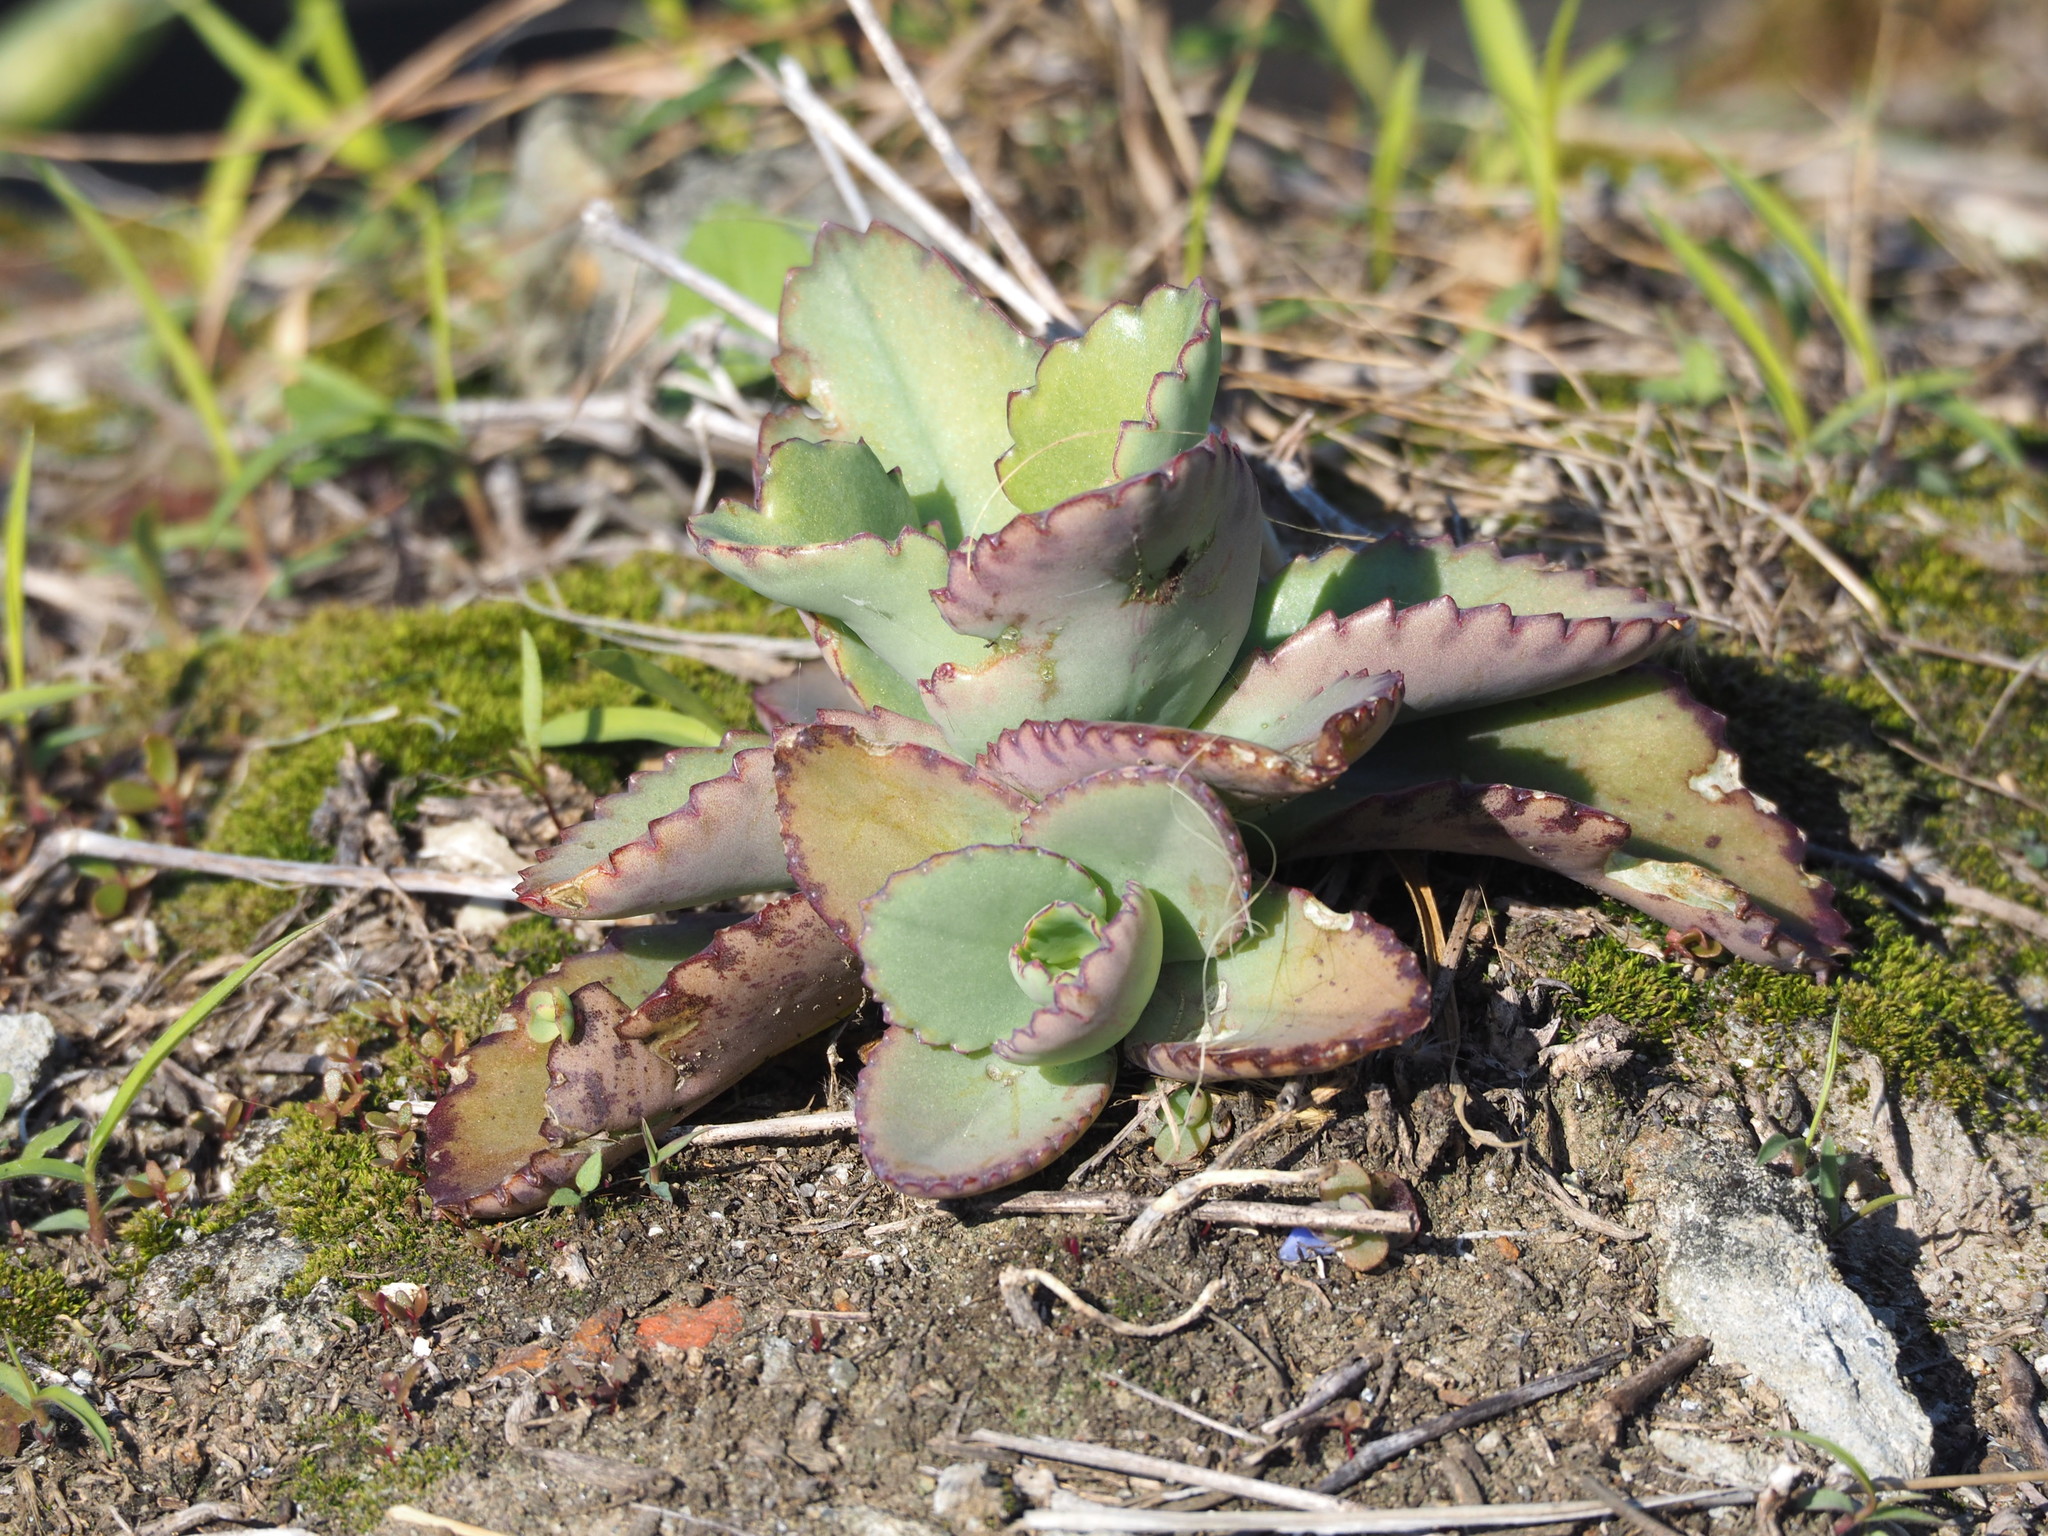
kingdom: Plantae
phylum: Tracheophyta
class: Magnoliopsida
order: Saxifragales
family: Crassulaceae
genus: Kalanchoe
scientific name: Kalanchoe laetivirens
